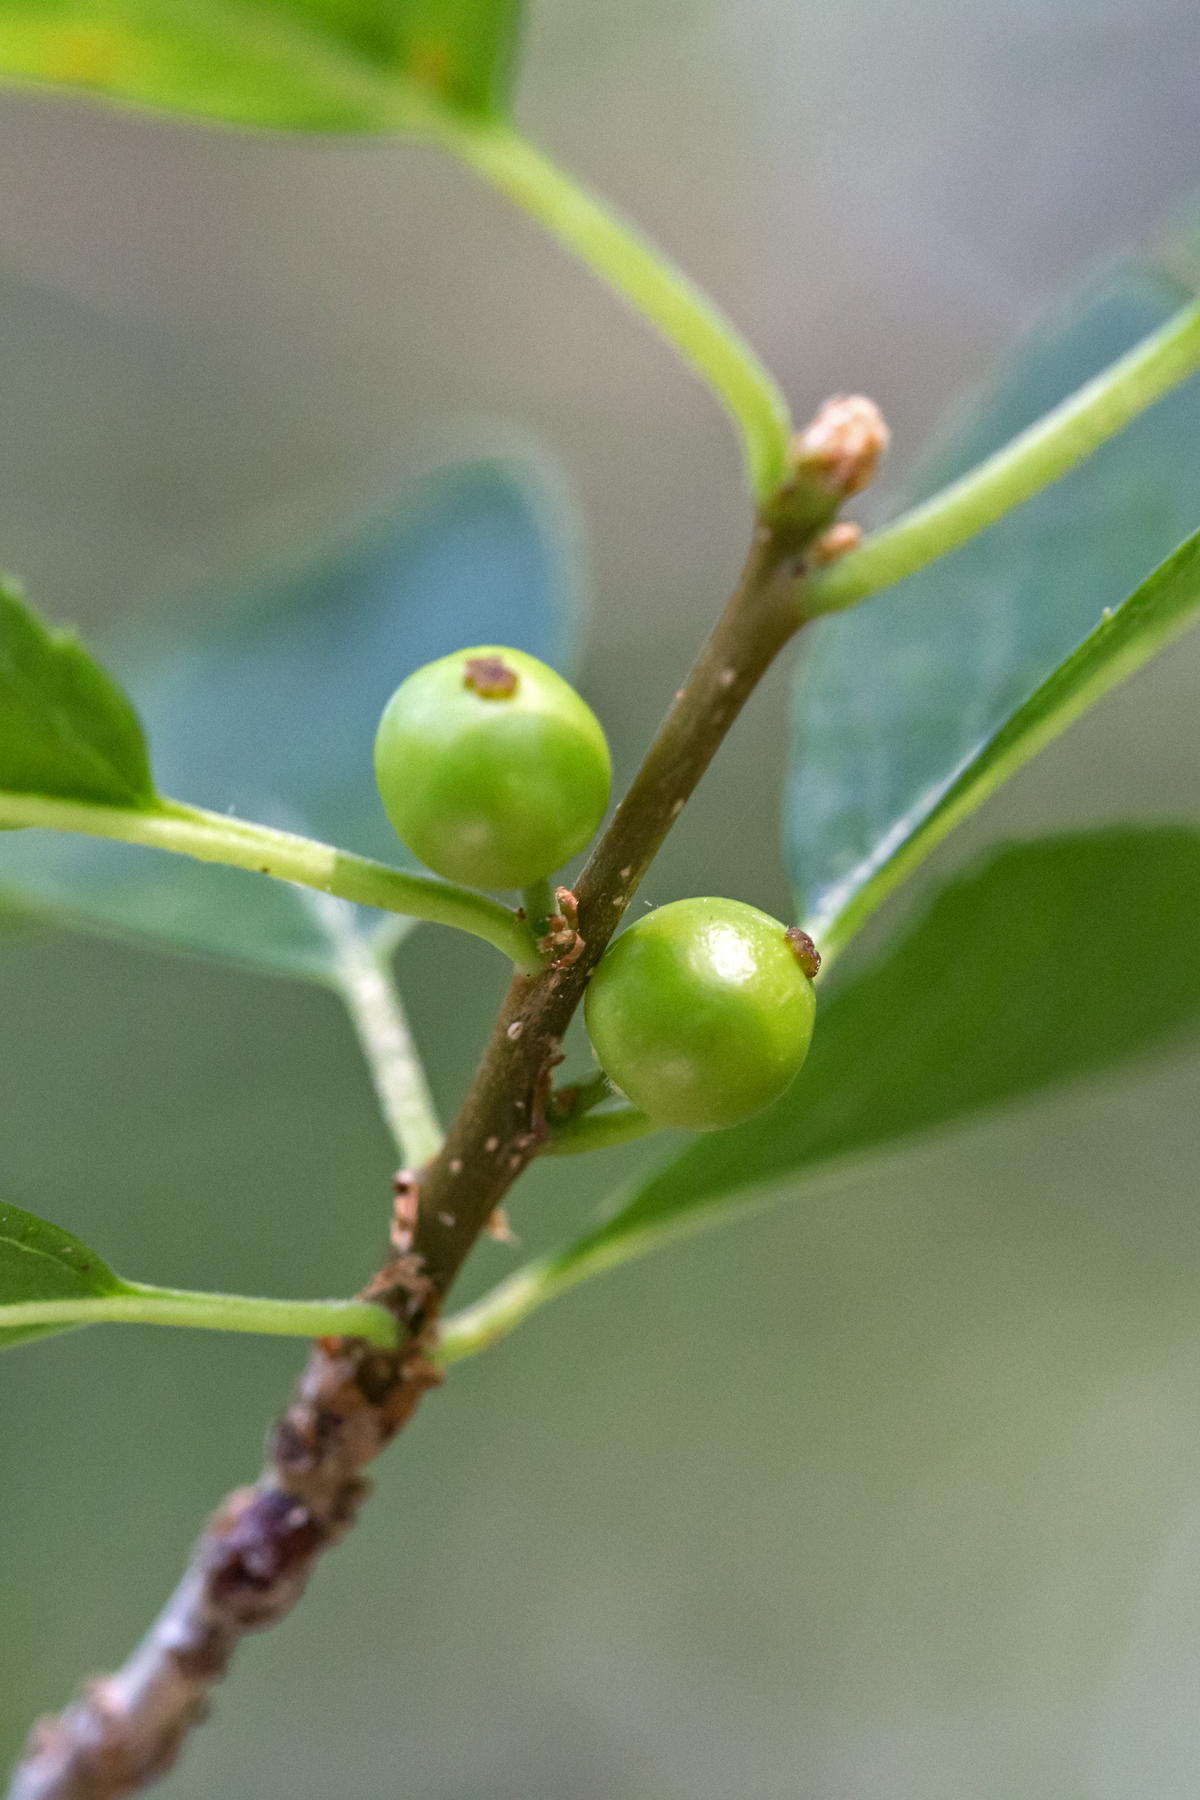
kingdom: Plantae
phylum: Tracheophyta
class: Magnoliopsida
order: Aquifoliales
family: Aquifoliaceae
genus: Ilex
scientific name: Ilex verticillata
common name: Virginia winterberry
